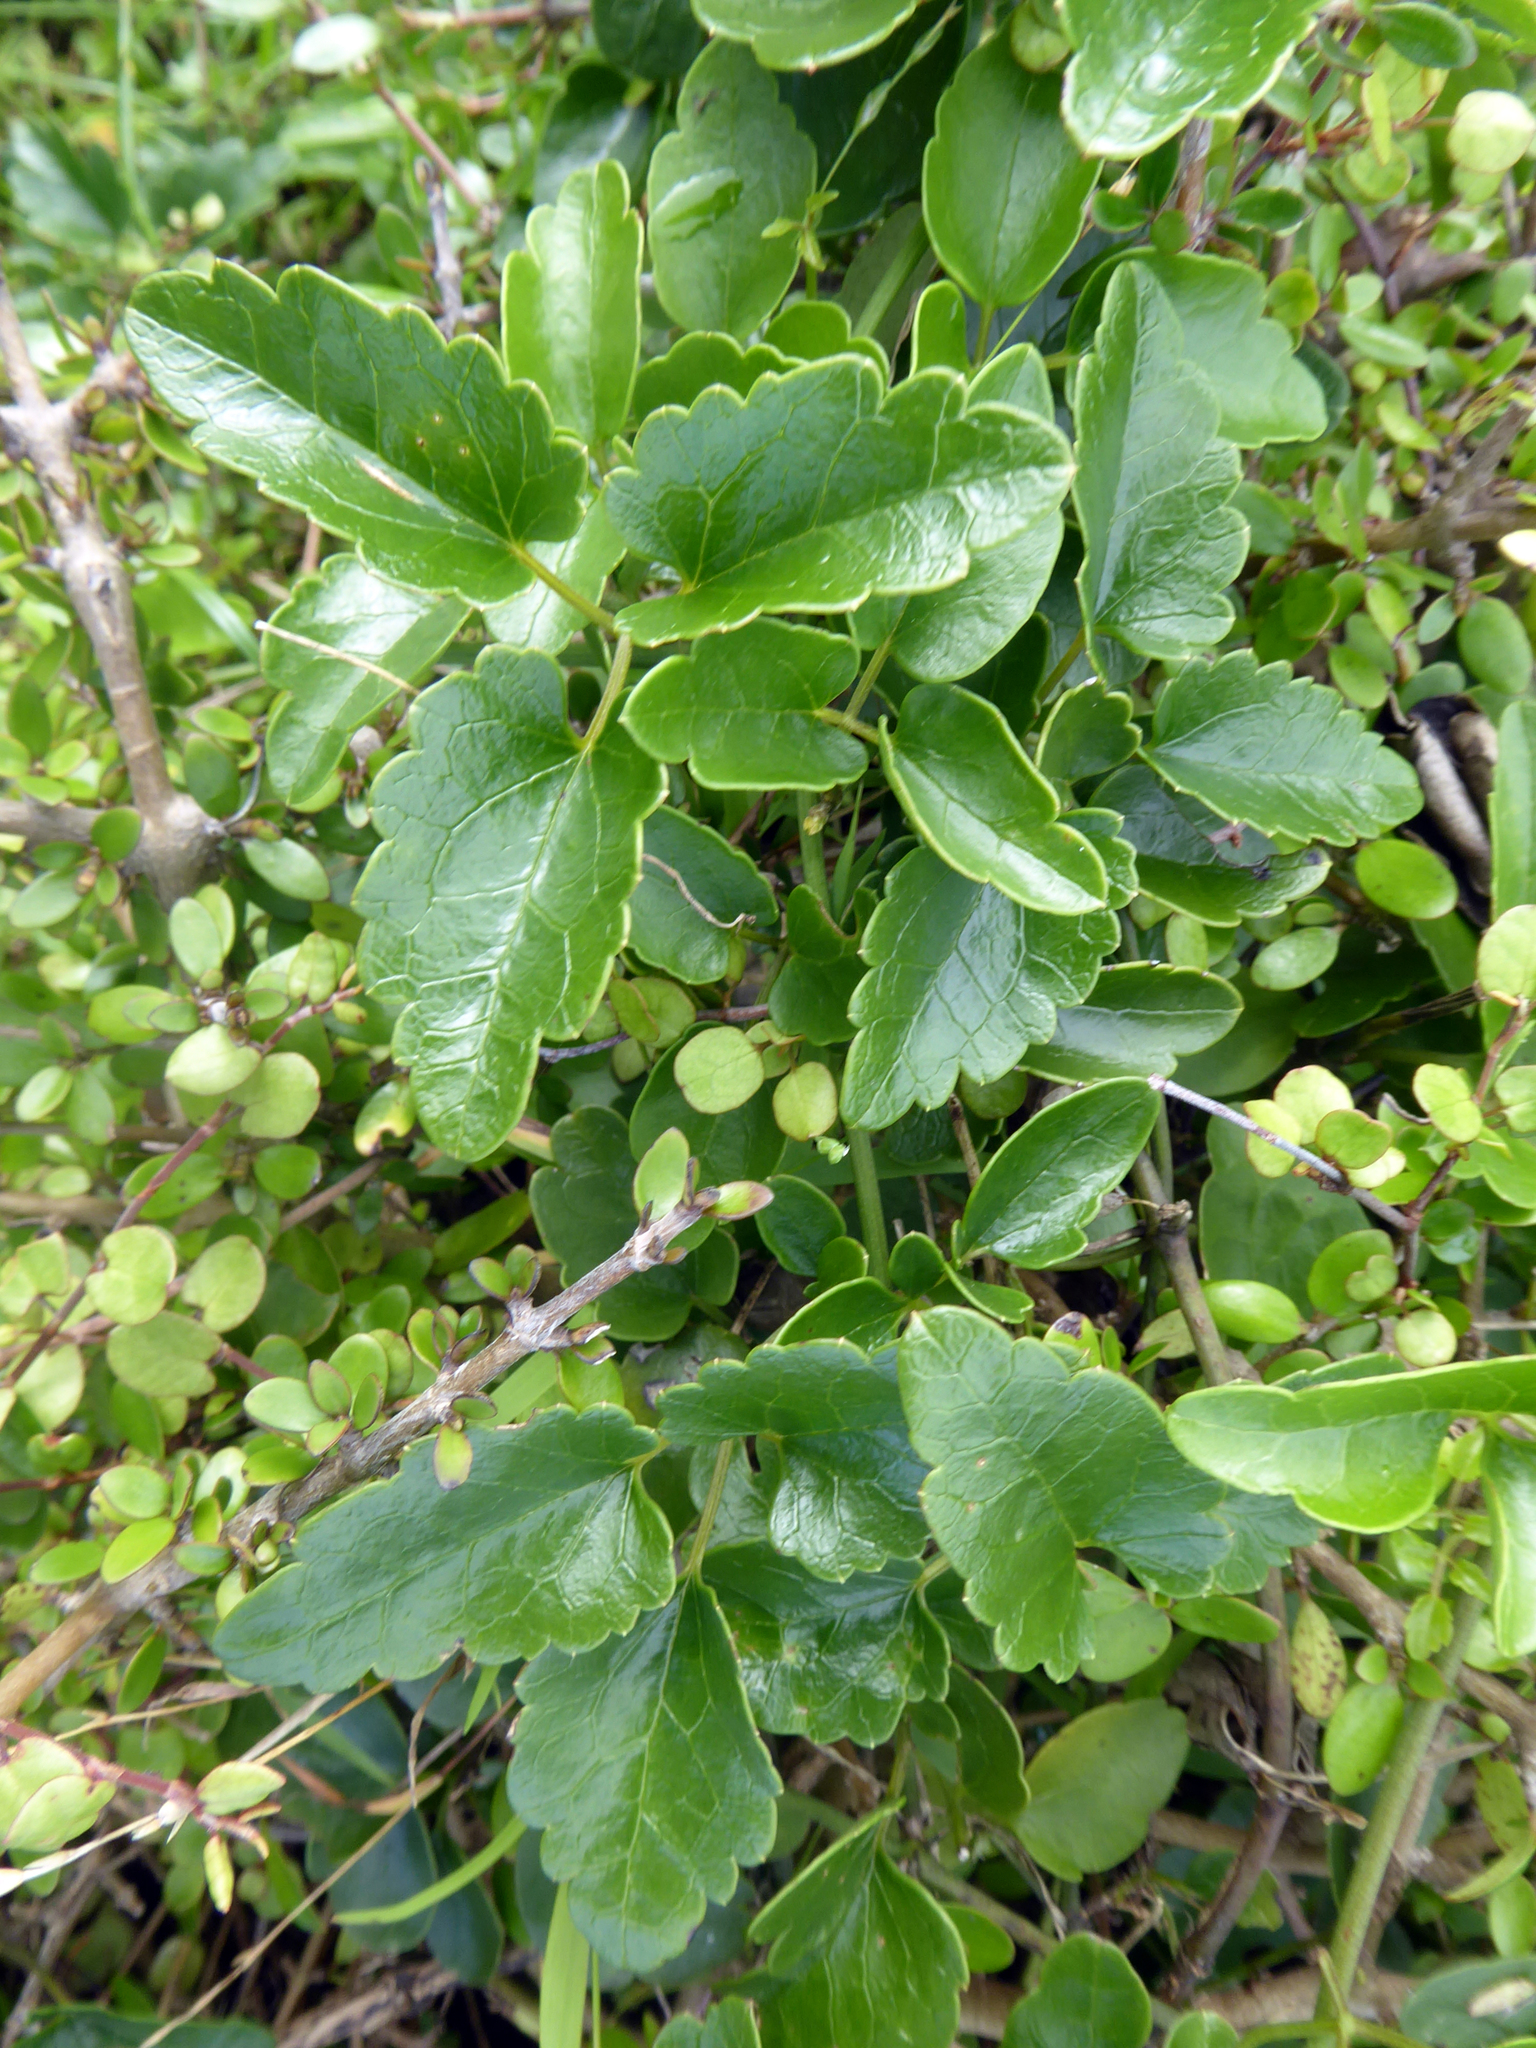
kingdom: Plantae
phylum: Tracheophyta
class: Magnoliopsida
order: Ranunculales
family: Ranunculaceae
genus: Clematis
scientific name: Clematis forsteri
